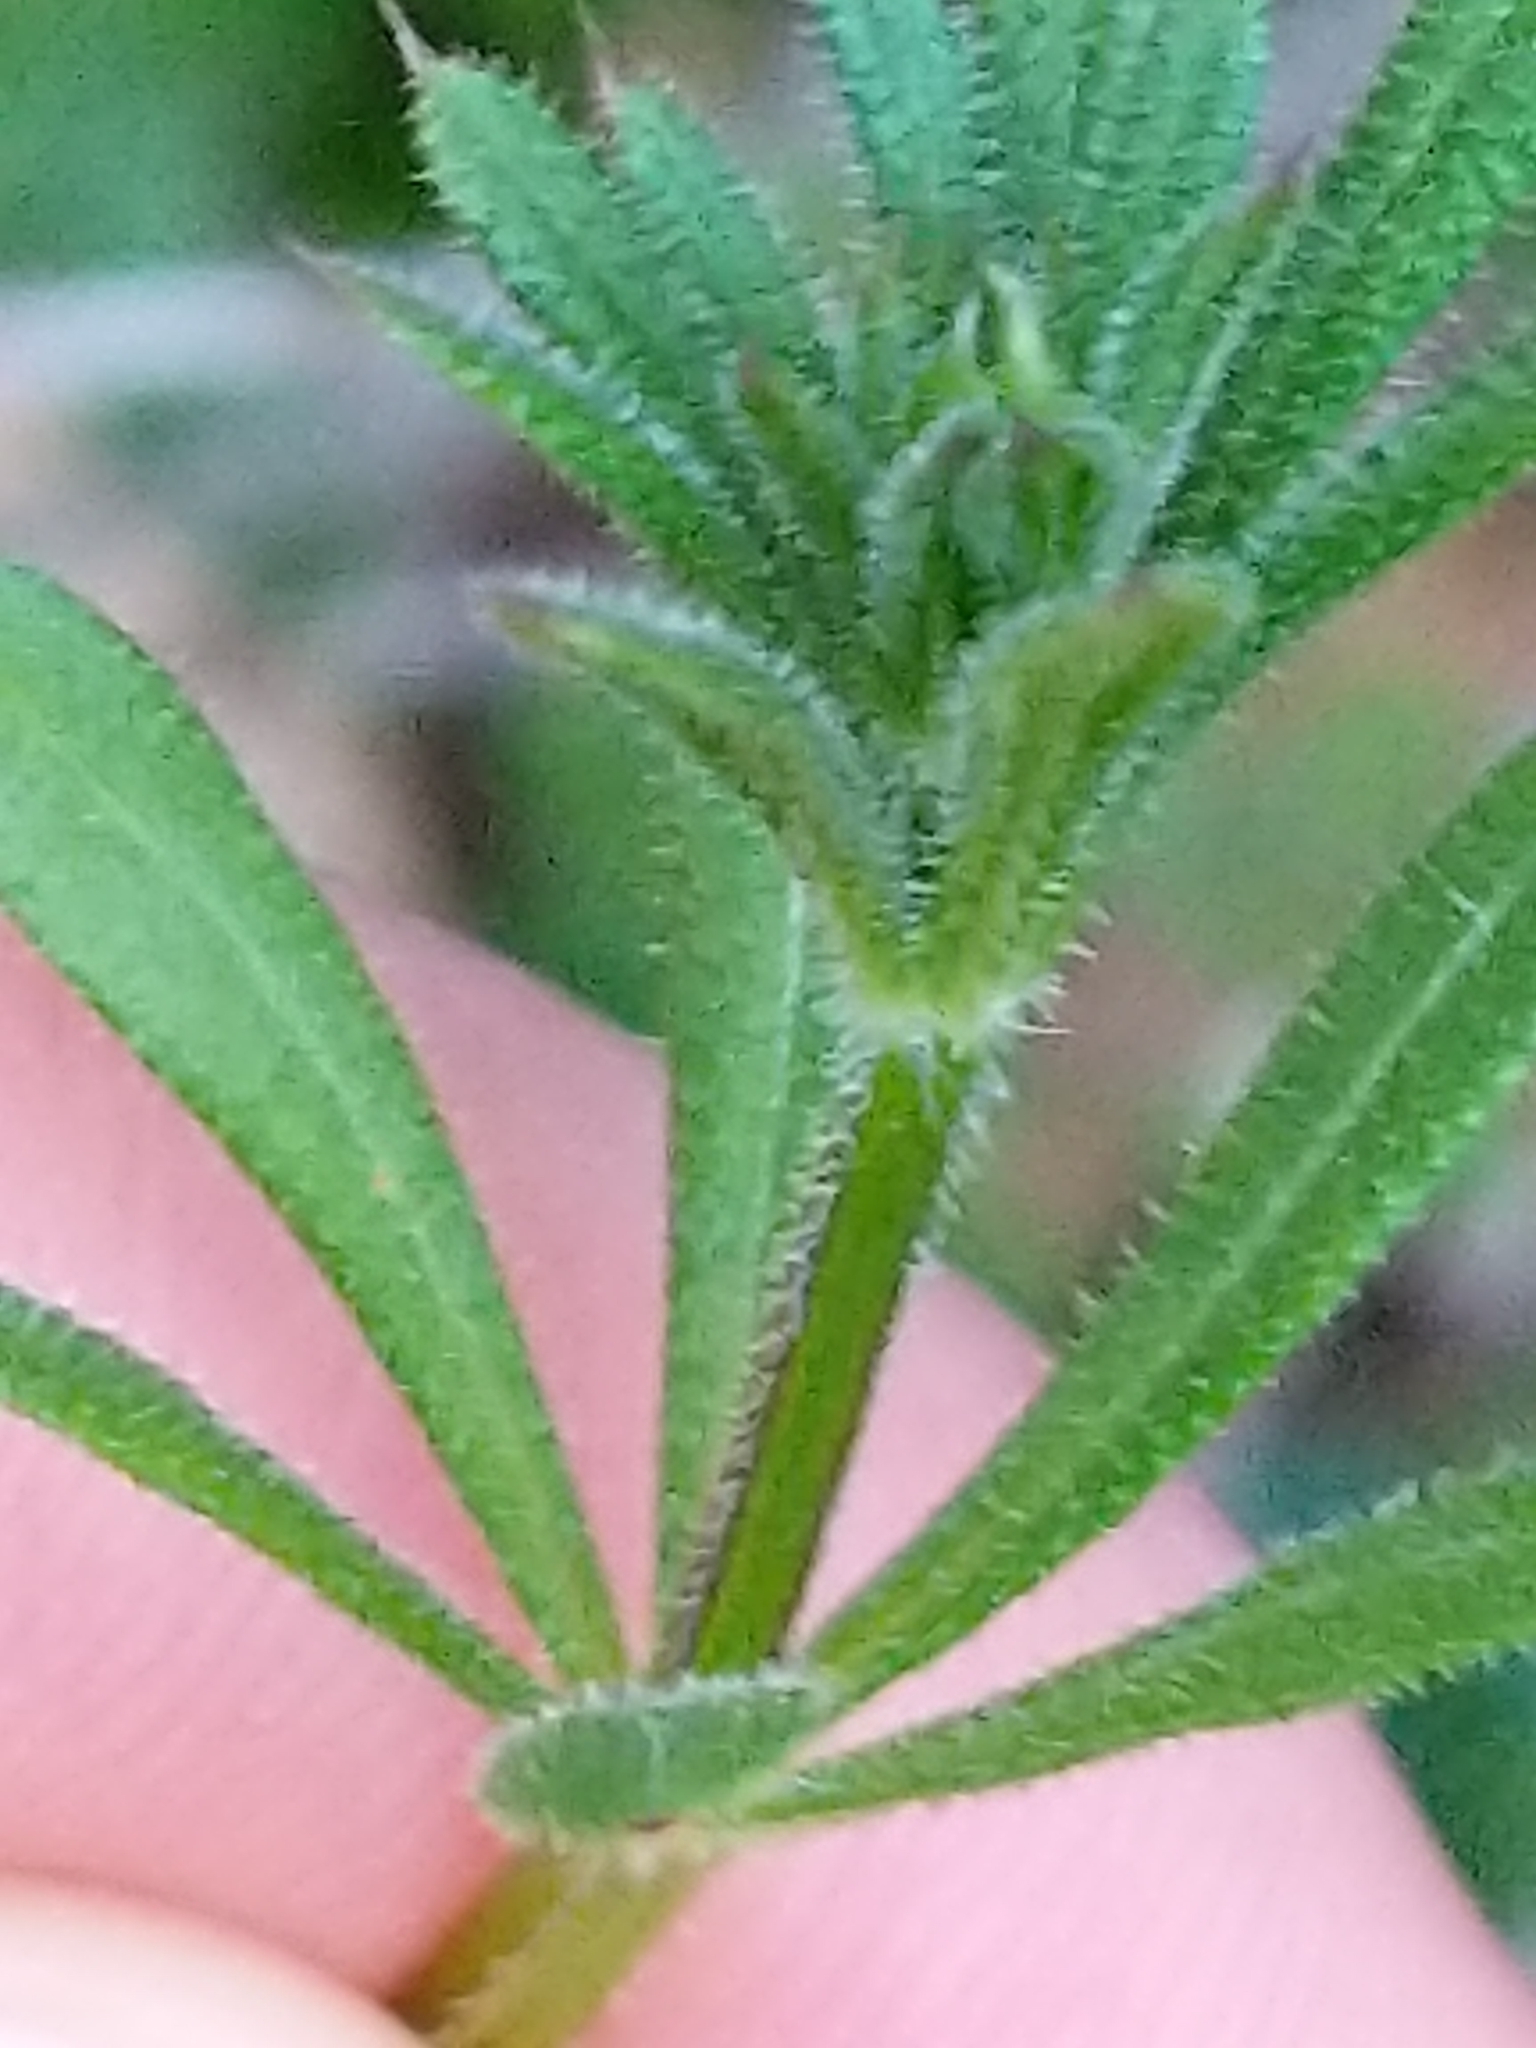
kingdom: Plantae
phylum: Tracheophyta
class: Magnoliopsida
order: Gentianales
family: Rubiaceae
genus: Galium
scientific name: Galium aparine
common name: Cleavers
